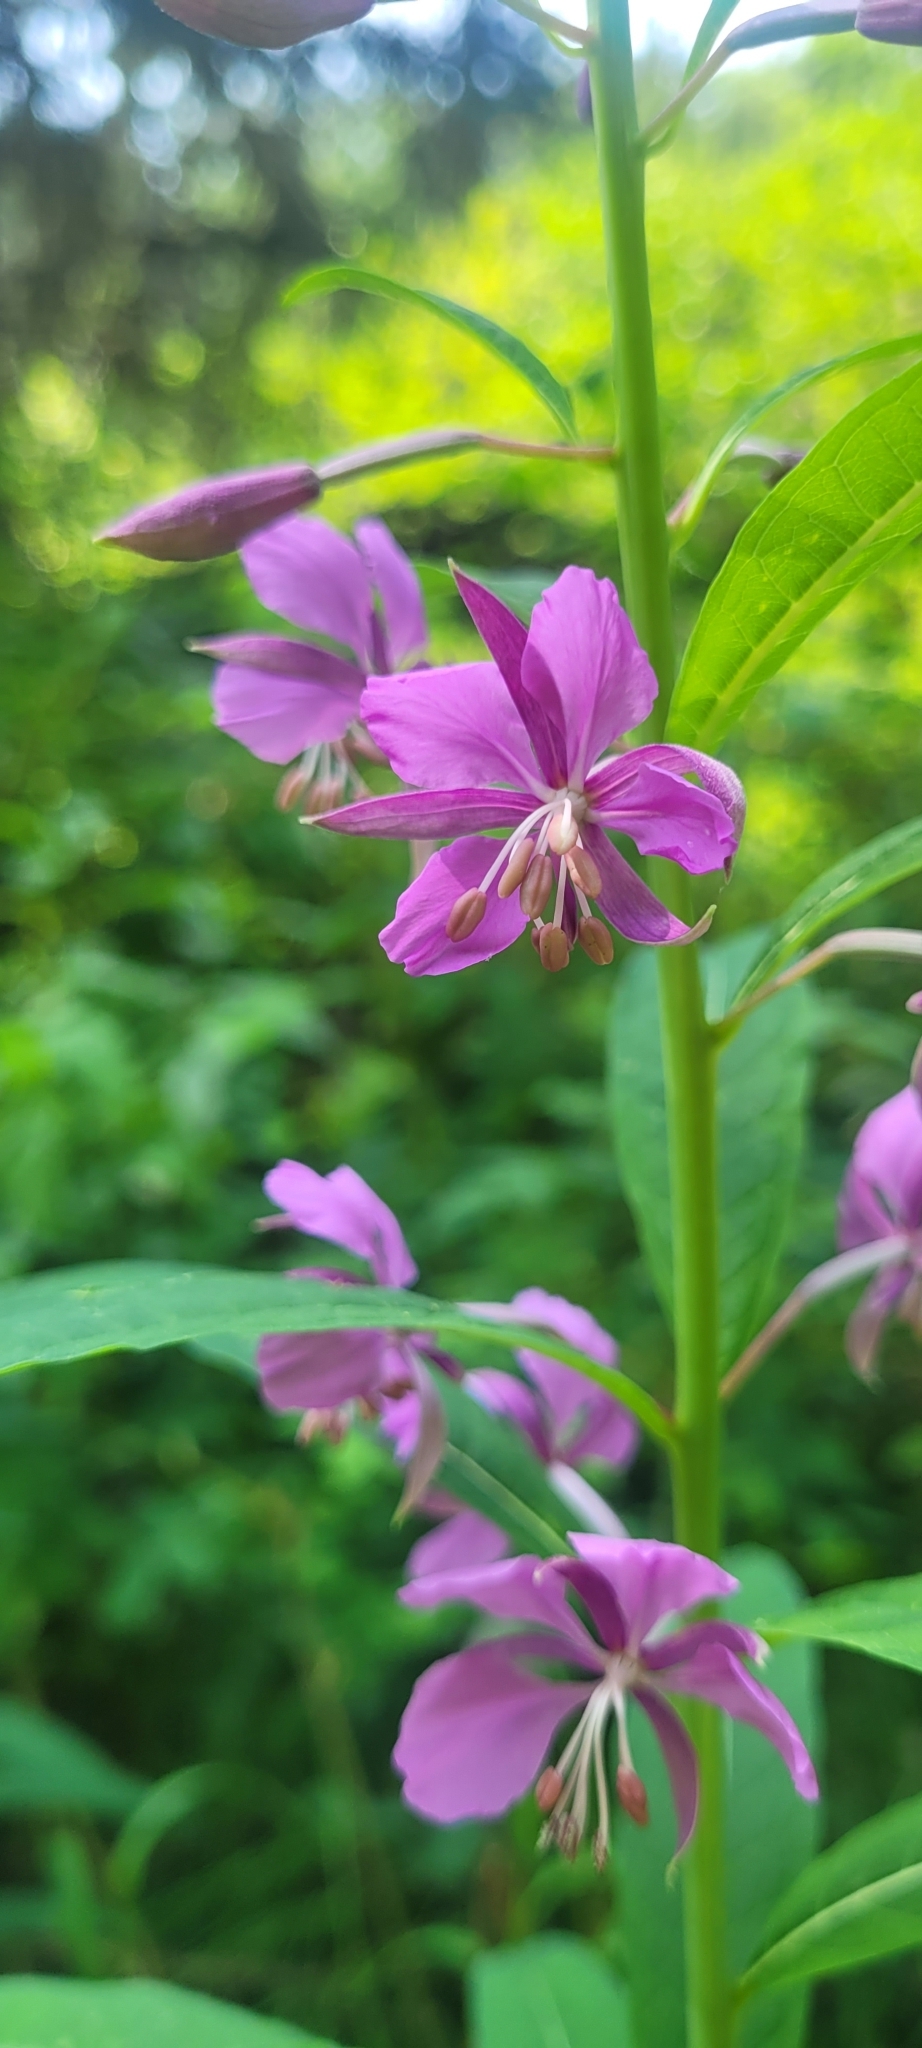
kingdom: Plantae
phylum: Tracheophyta
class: Magnoliopsida
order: Myrtales
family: Onagraceae
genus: Chamaenerion
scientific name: Chamaenerion angustifolium
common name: Fireweed
